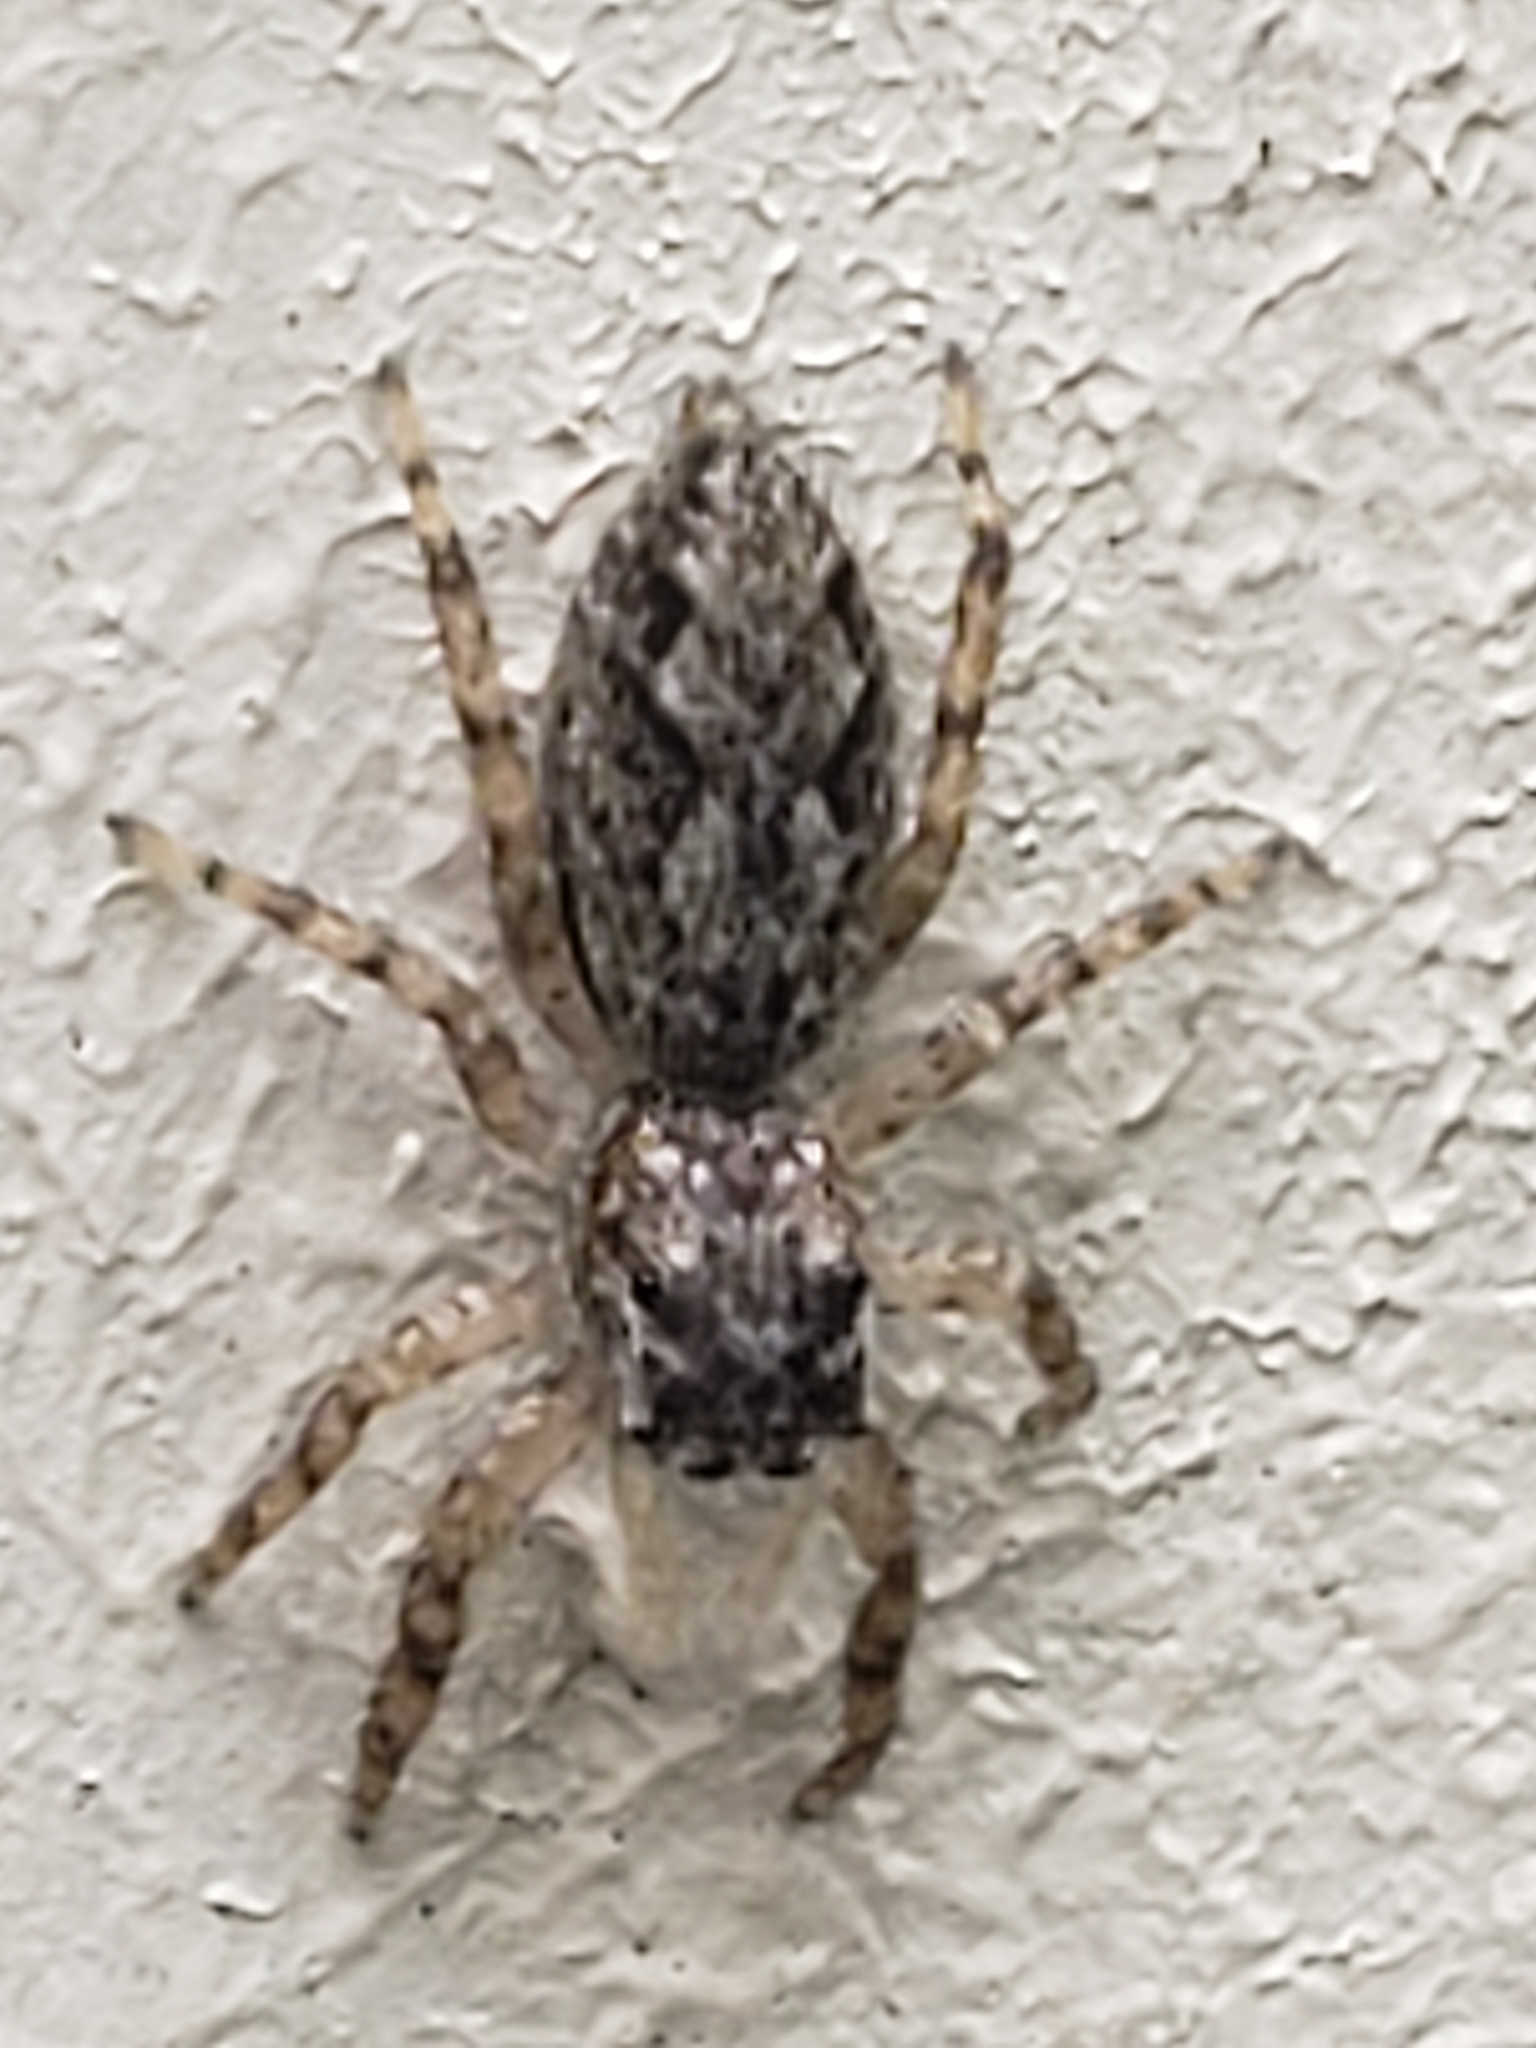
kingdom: Animalia
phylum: Arthropoda
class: Arachnida
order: Araneae
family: Salticidae
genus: Platycryptus
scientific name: Platycryptus undatus
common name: Tan jumping spider
